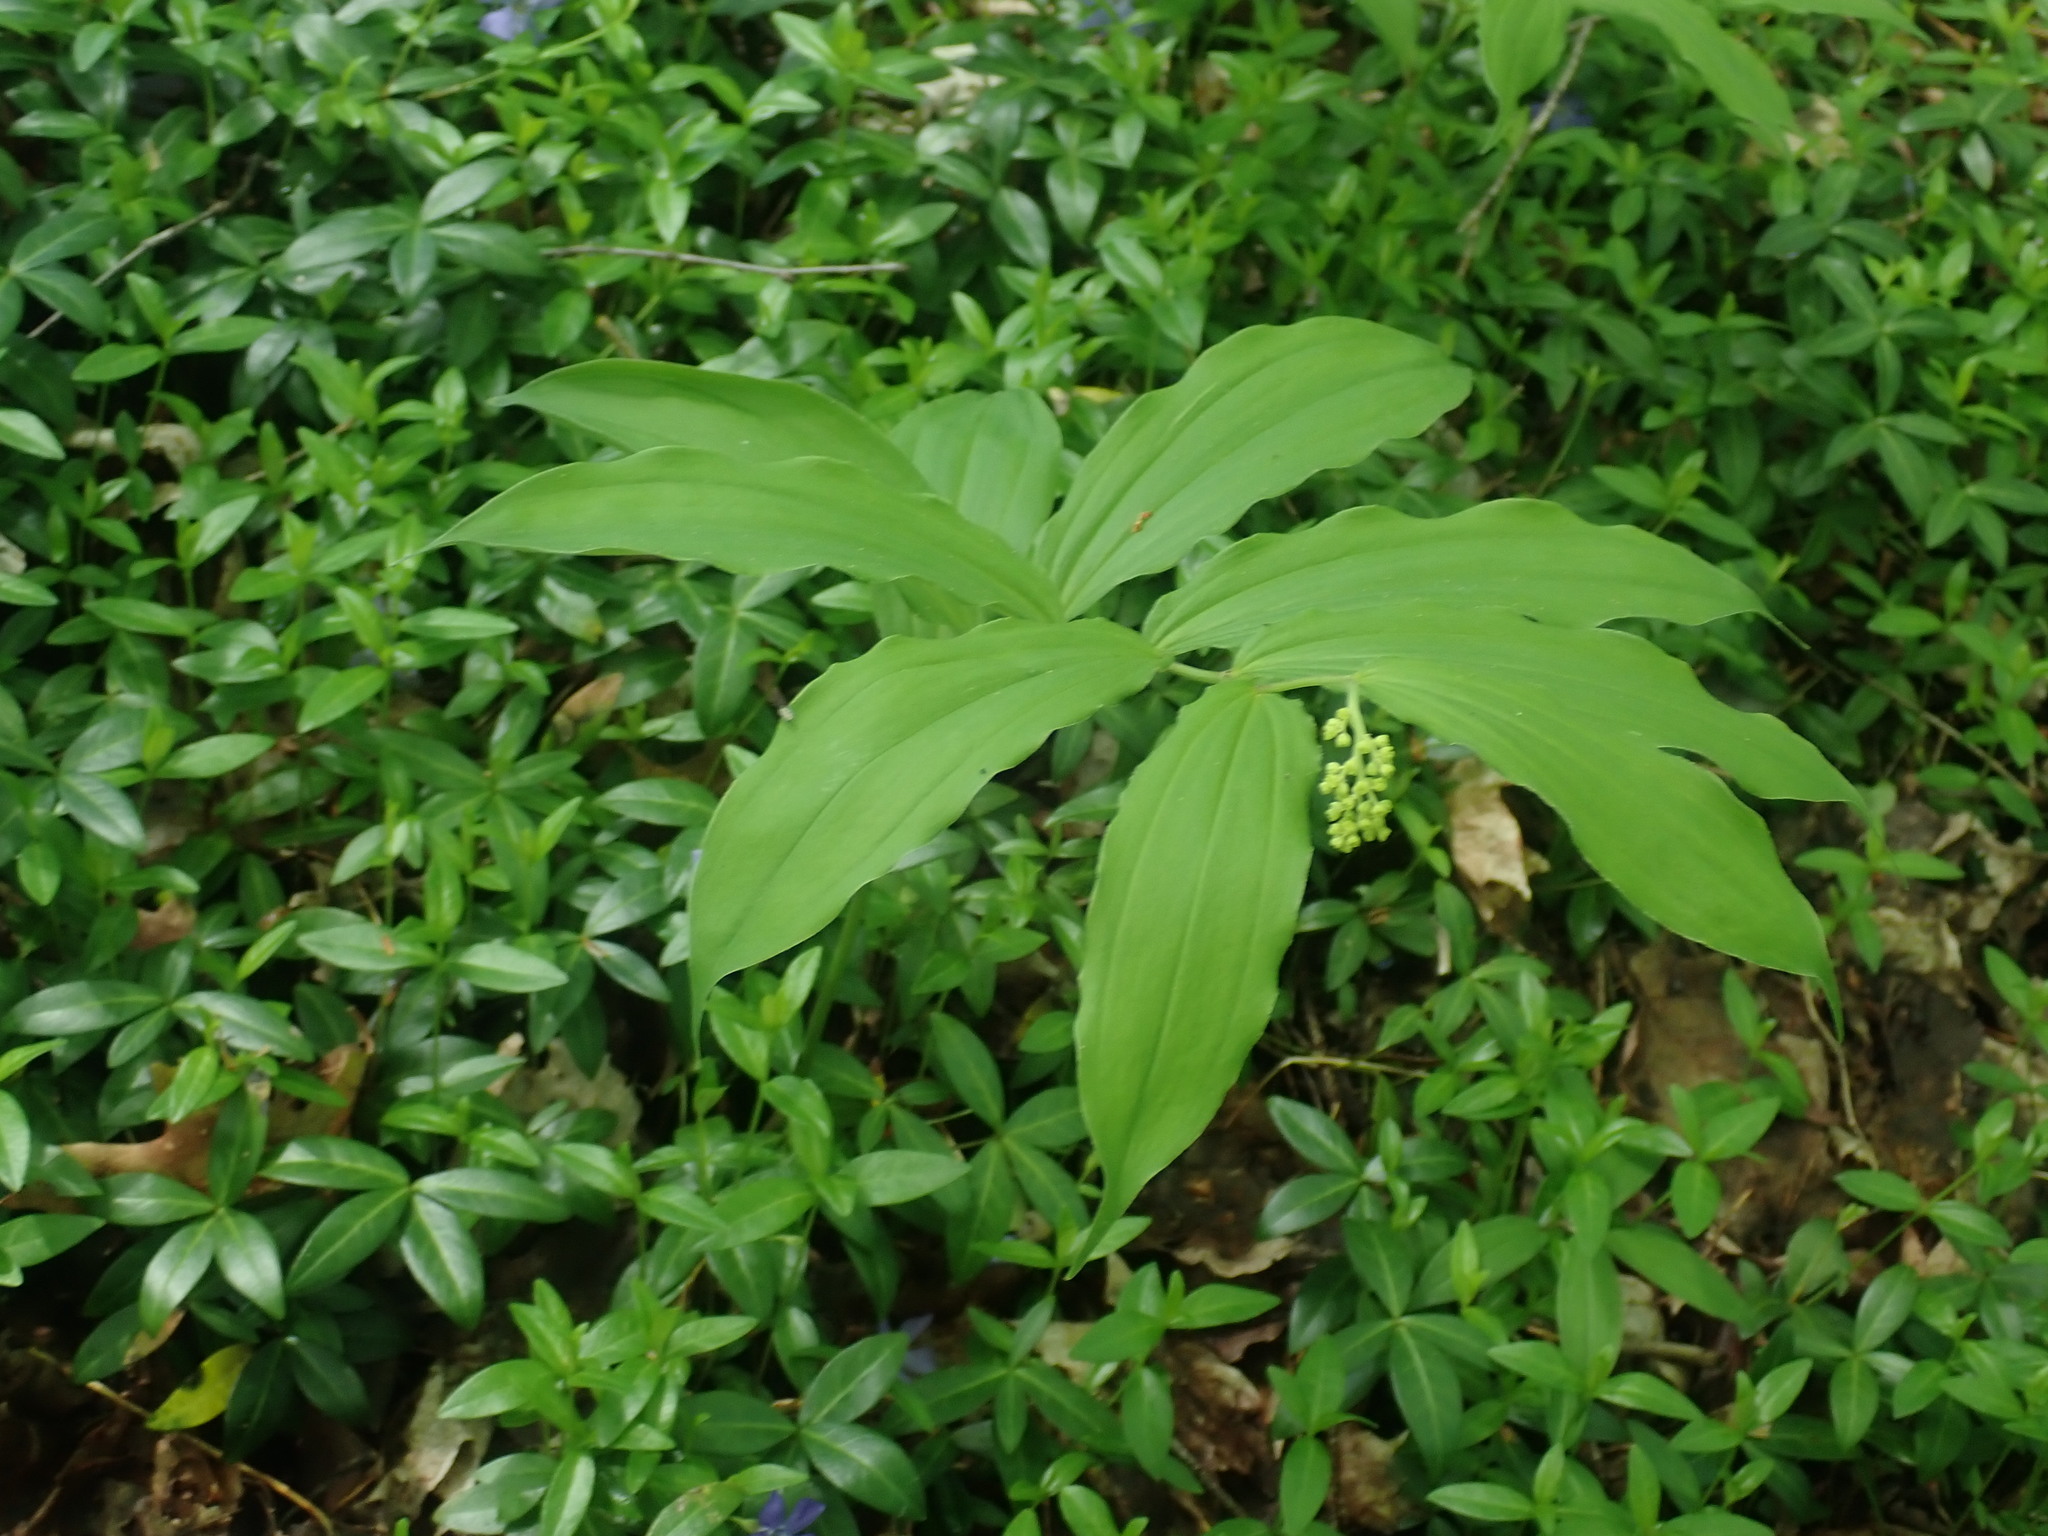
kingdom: Plantae
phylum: Tracheophyta
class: Liliopsida
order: Asparagales
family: Asparagaceae
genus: Maianthemum
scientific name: Maianthemum racemosum
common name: False spikenard
